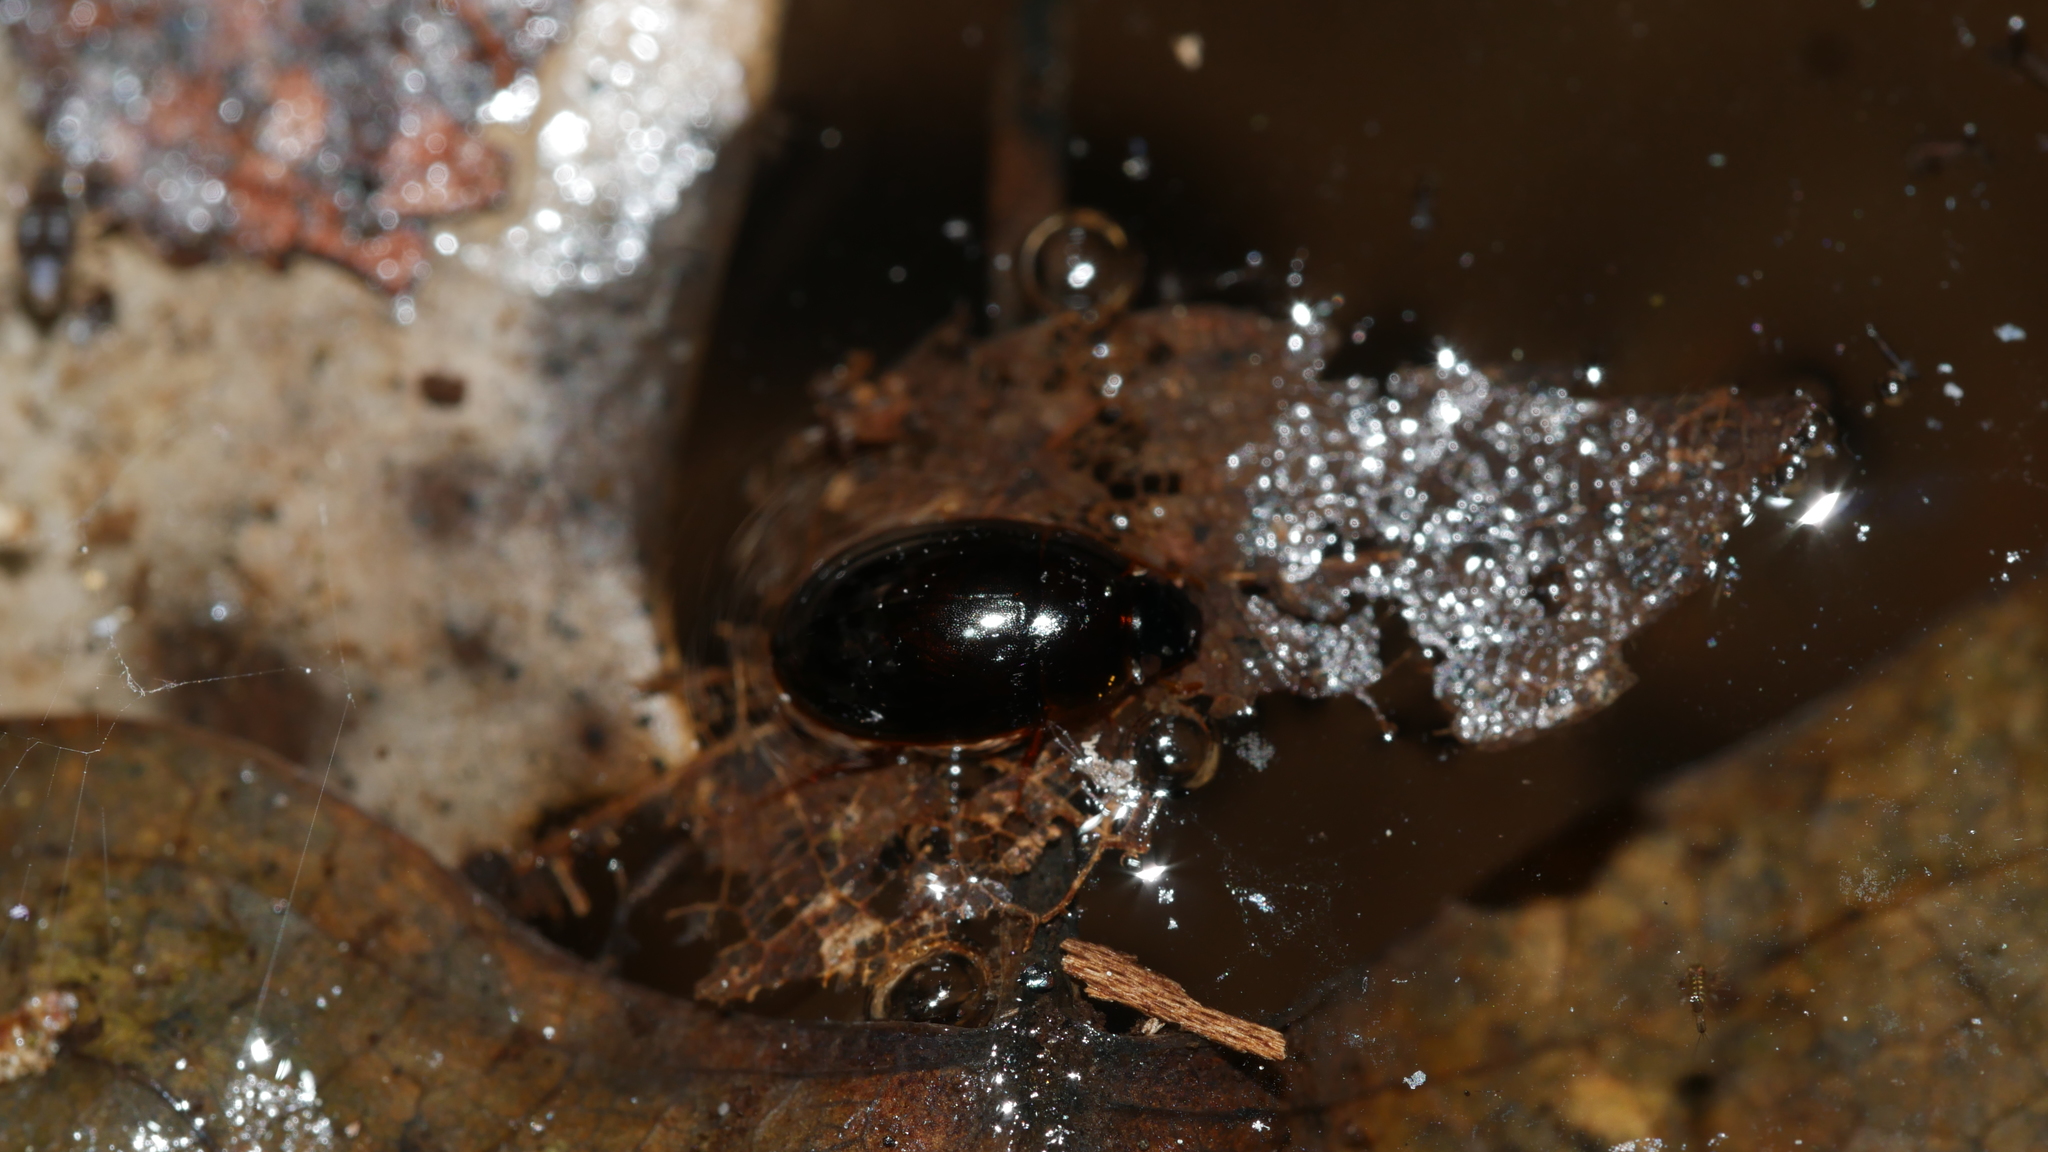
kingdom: Animalia
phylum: Arthropoda
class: Insecta
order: Coleoptera
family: Hydrophilidae
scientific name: Hydrophilidae
